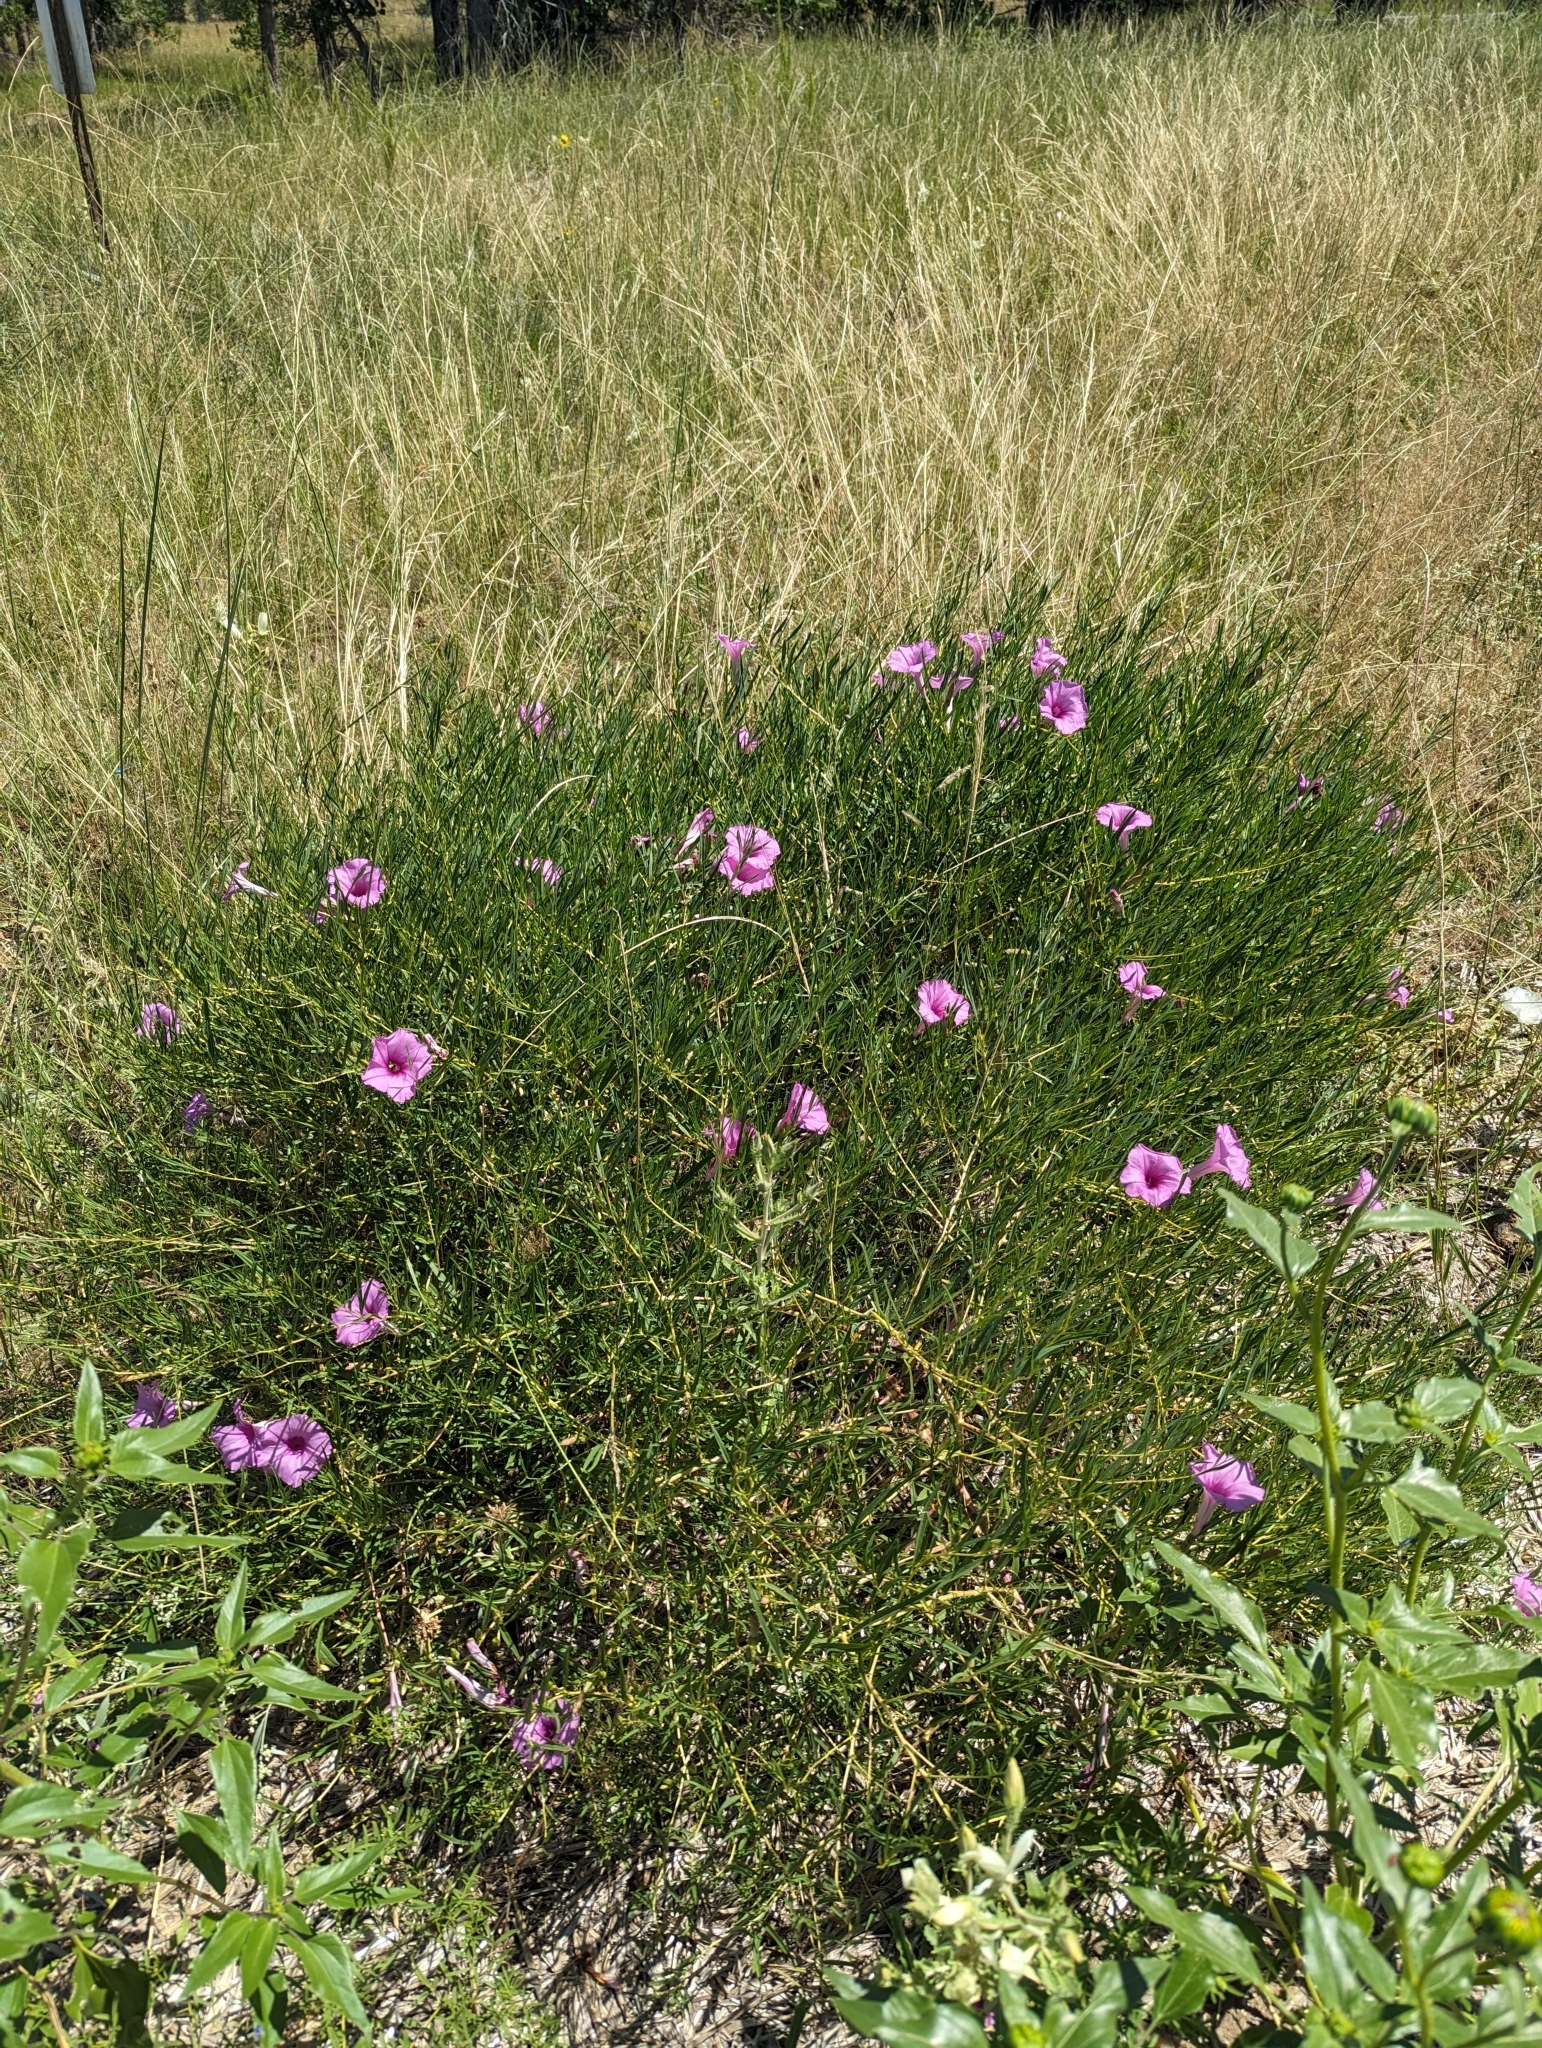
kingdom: Plantae
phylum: Tracheophyta
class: Magnoliopsida
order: Solanales
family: Convolvulaceae
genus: Ipomoea
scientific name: Ipomoea leptophylla
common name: Bush moonflower
